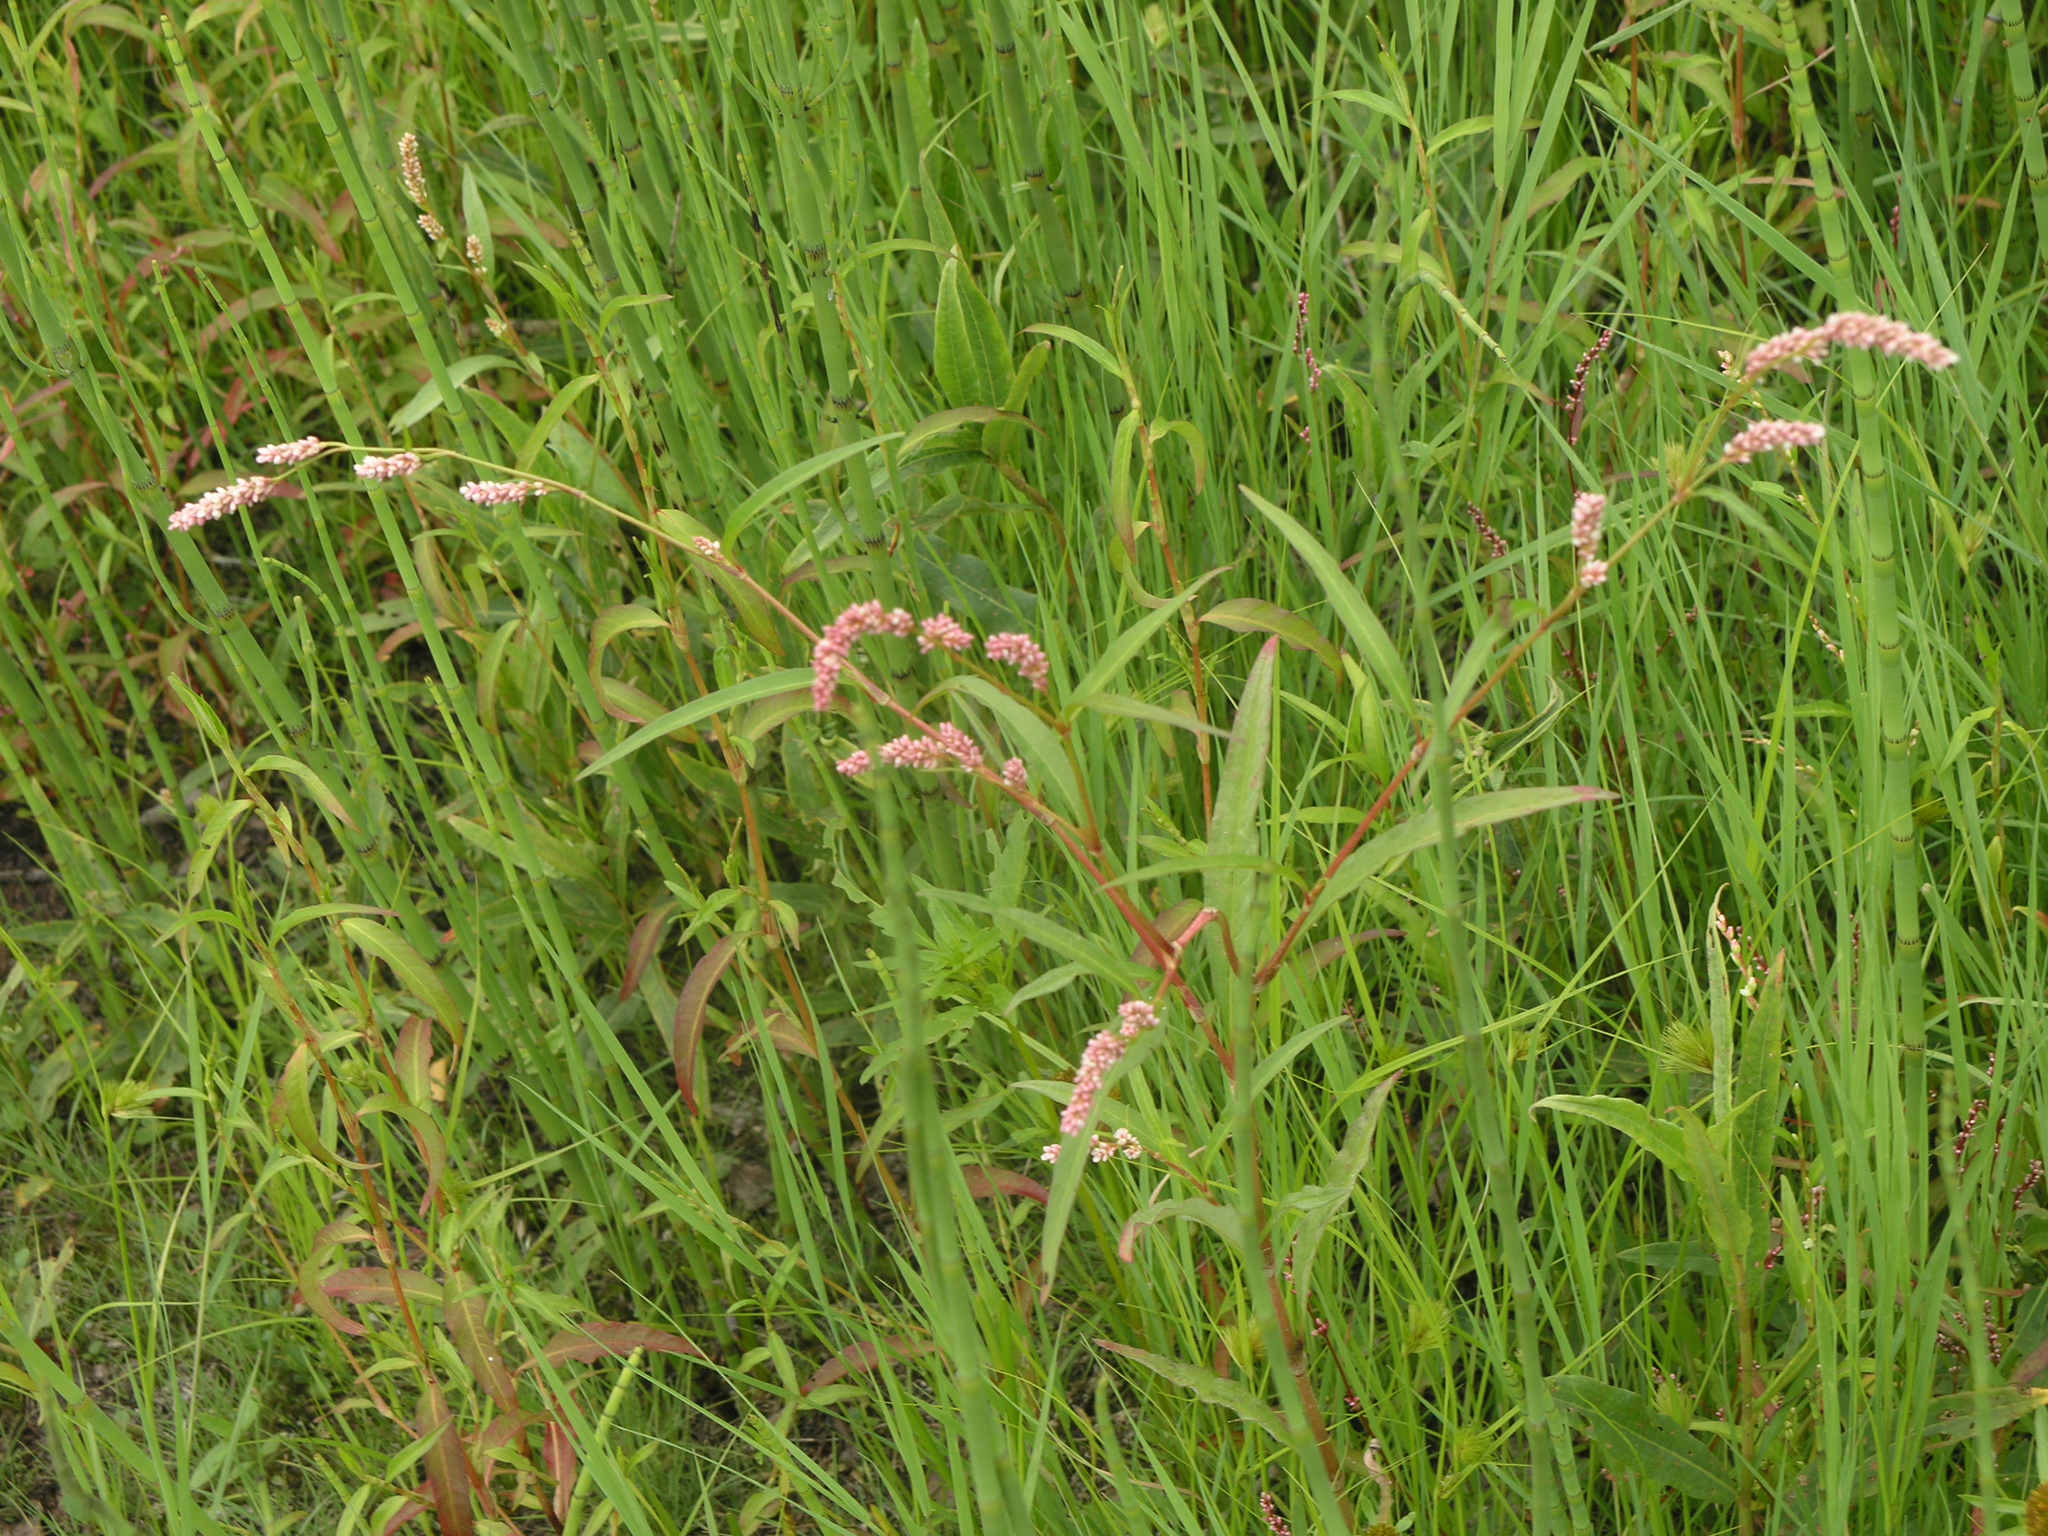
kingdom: Plantae
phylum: Tracheophyta
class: Magnoliopsida
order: Caryophyllales
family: Polygonaceae
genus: Persicaria
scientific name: Persicaria lapathifolia
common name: Curlytop knotweed
